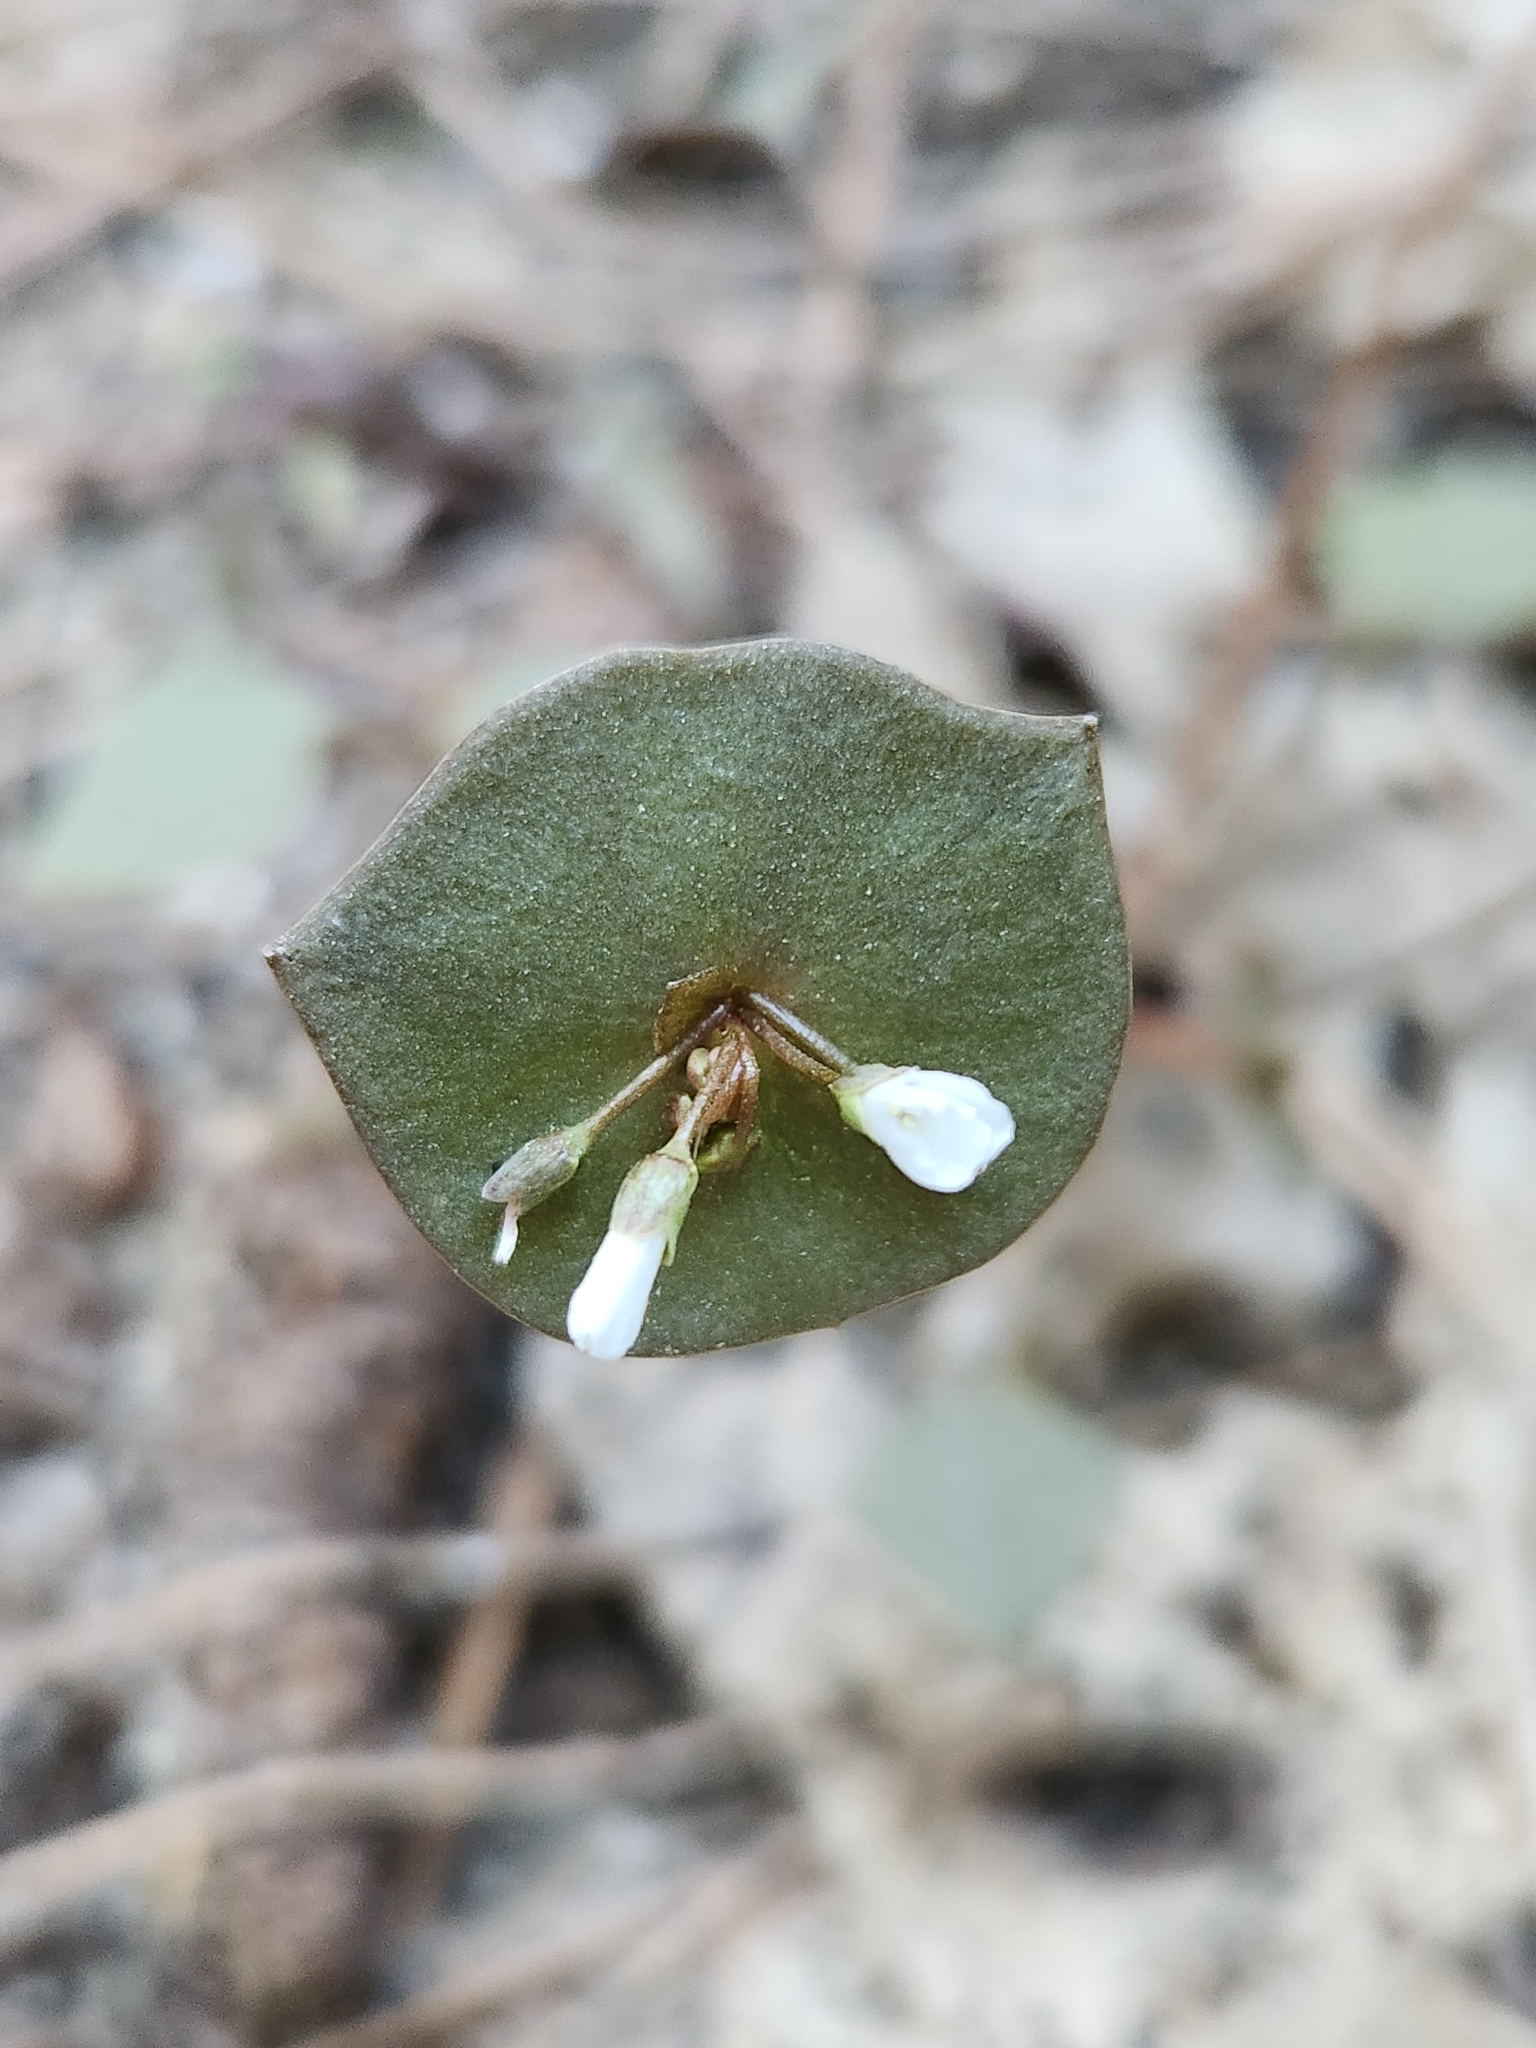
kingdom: Plantae
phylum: Tracheophyta
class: Magnoliopsida
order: Caryophyllales
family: Montiaceae
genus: Claytonia
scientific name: Claytonia perfoliata
